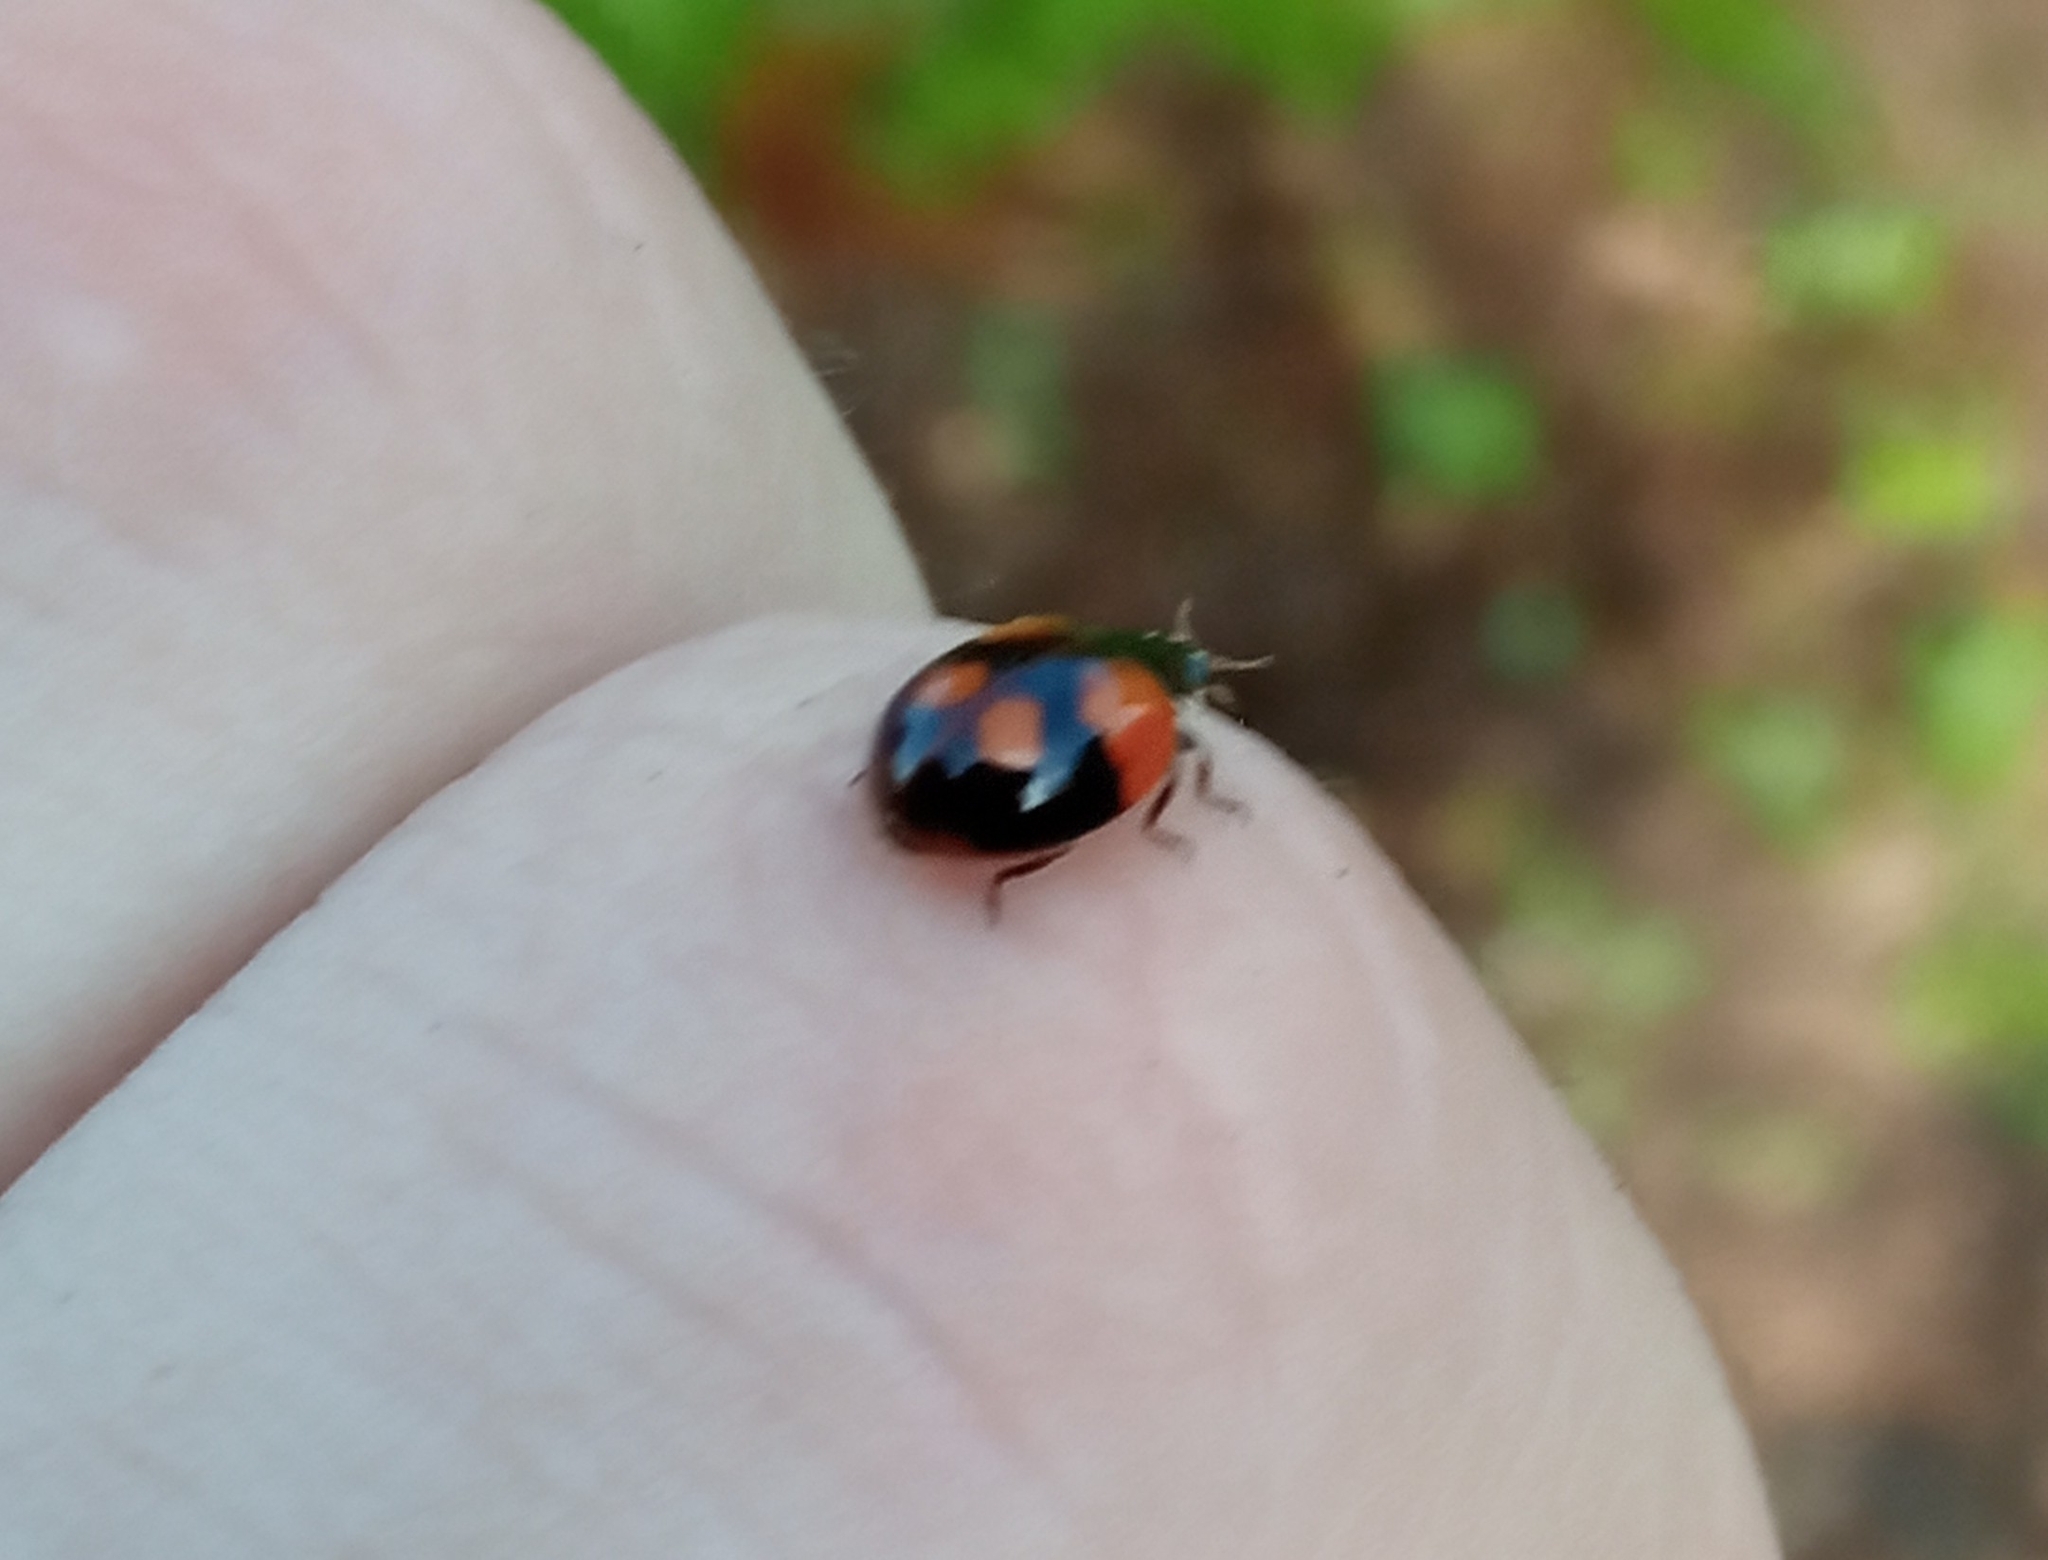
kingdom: Animalia
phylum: Arthropoda
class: Insecta
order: Coleoptera
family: Coccinellidae
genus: Adalia
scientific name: Adalia bipunctata
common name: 2-spot ladybird
